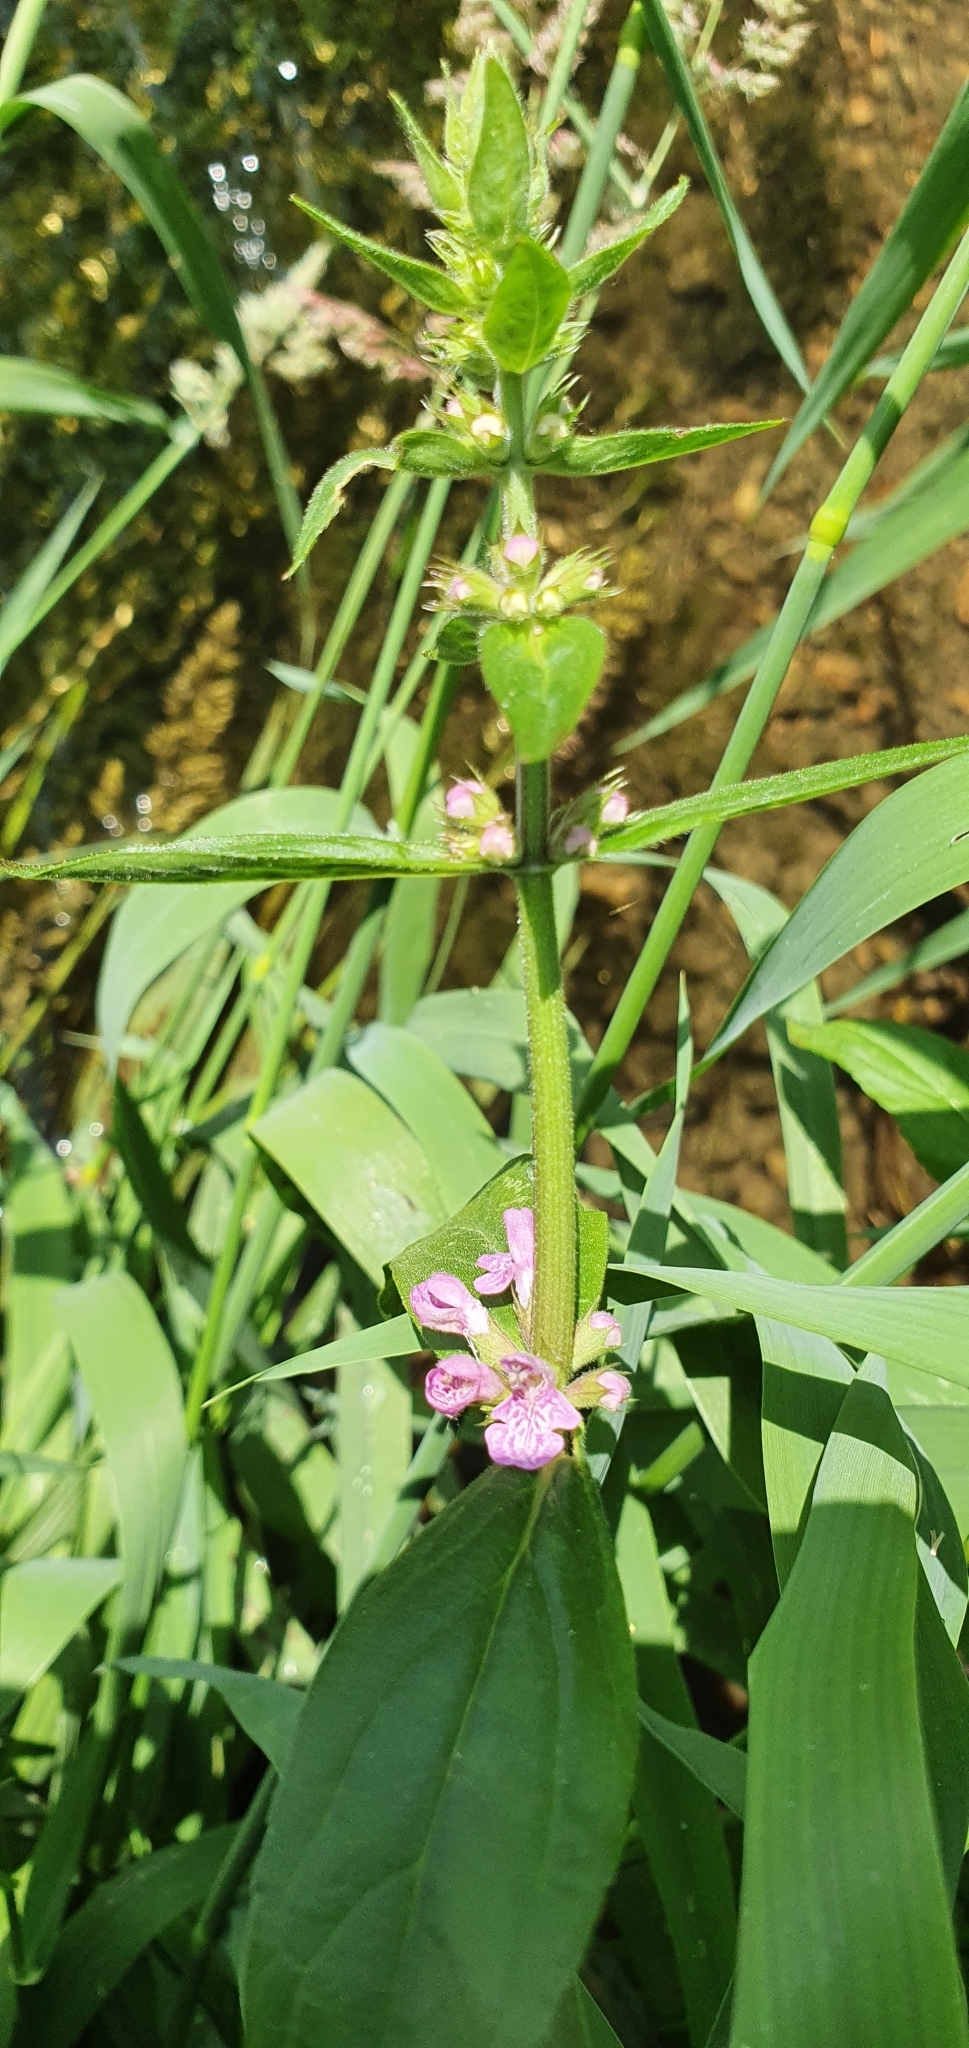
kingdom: Plantae
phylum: Tracheophyta
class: Magnoliopsida
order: Lamiales
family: Lamiaceae
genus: Stachys
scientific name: Stachys palustris
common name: Marsh woundwort
